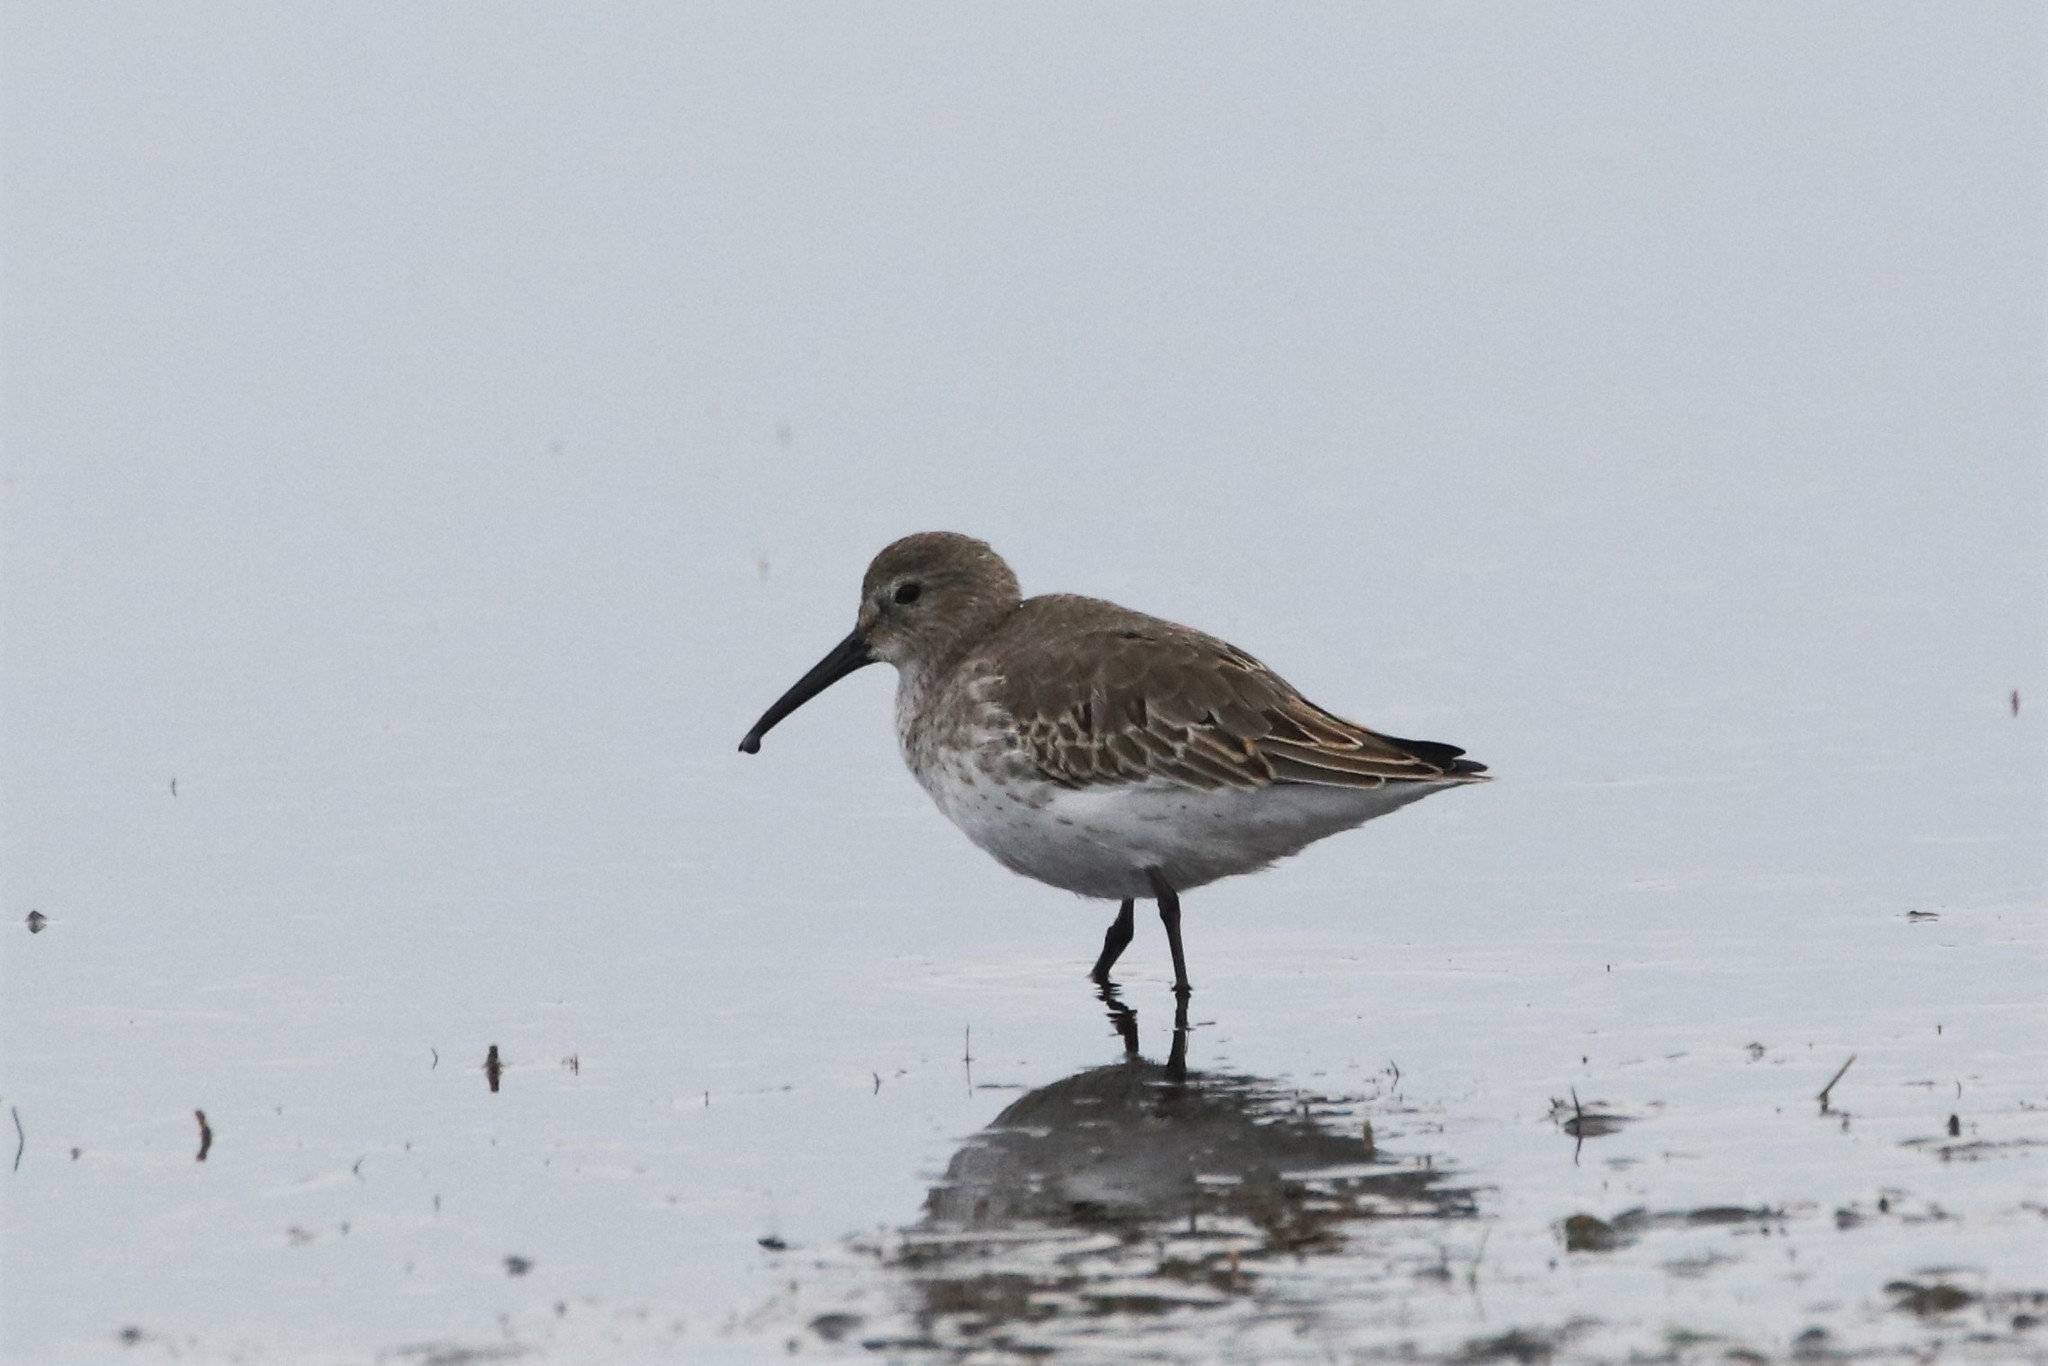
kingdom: Animalia
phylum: Chordata
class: Aves
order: Charadriiformes
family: Scolopacidae
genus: Calidris
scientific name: Calidris alpina
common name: Dunlin
